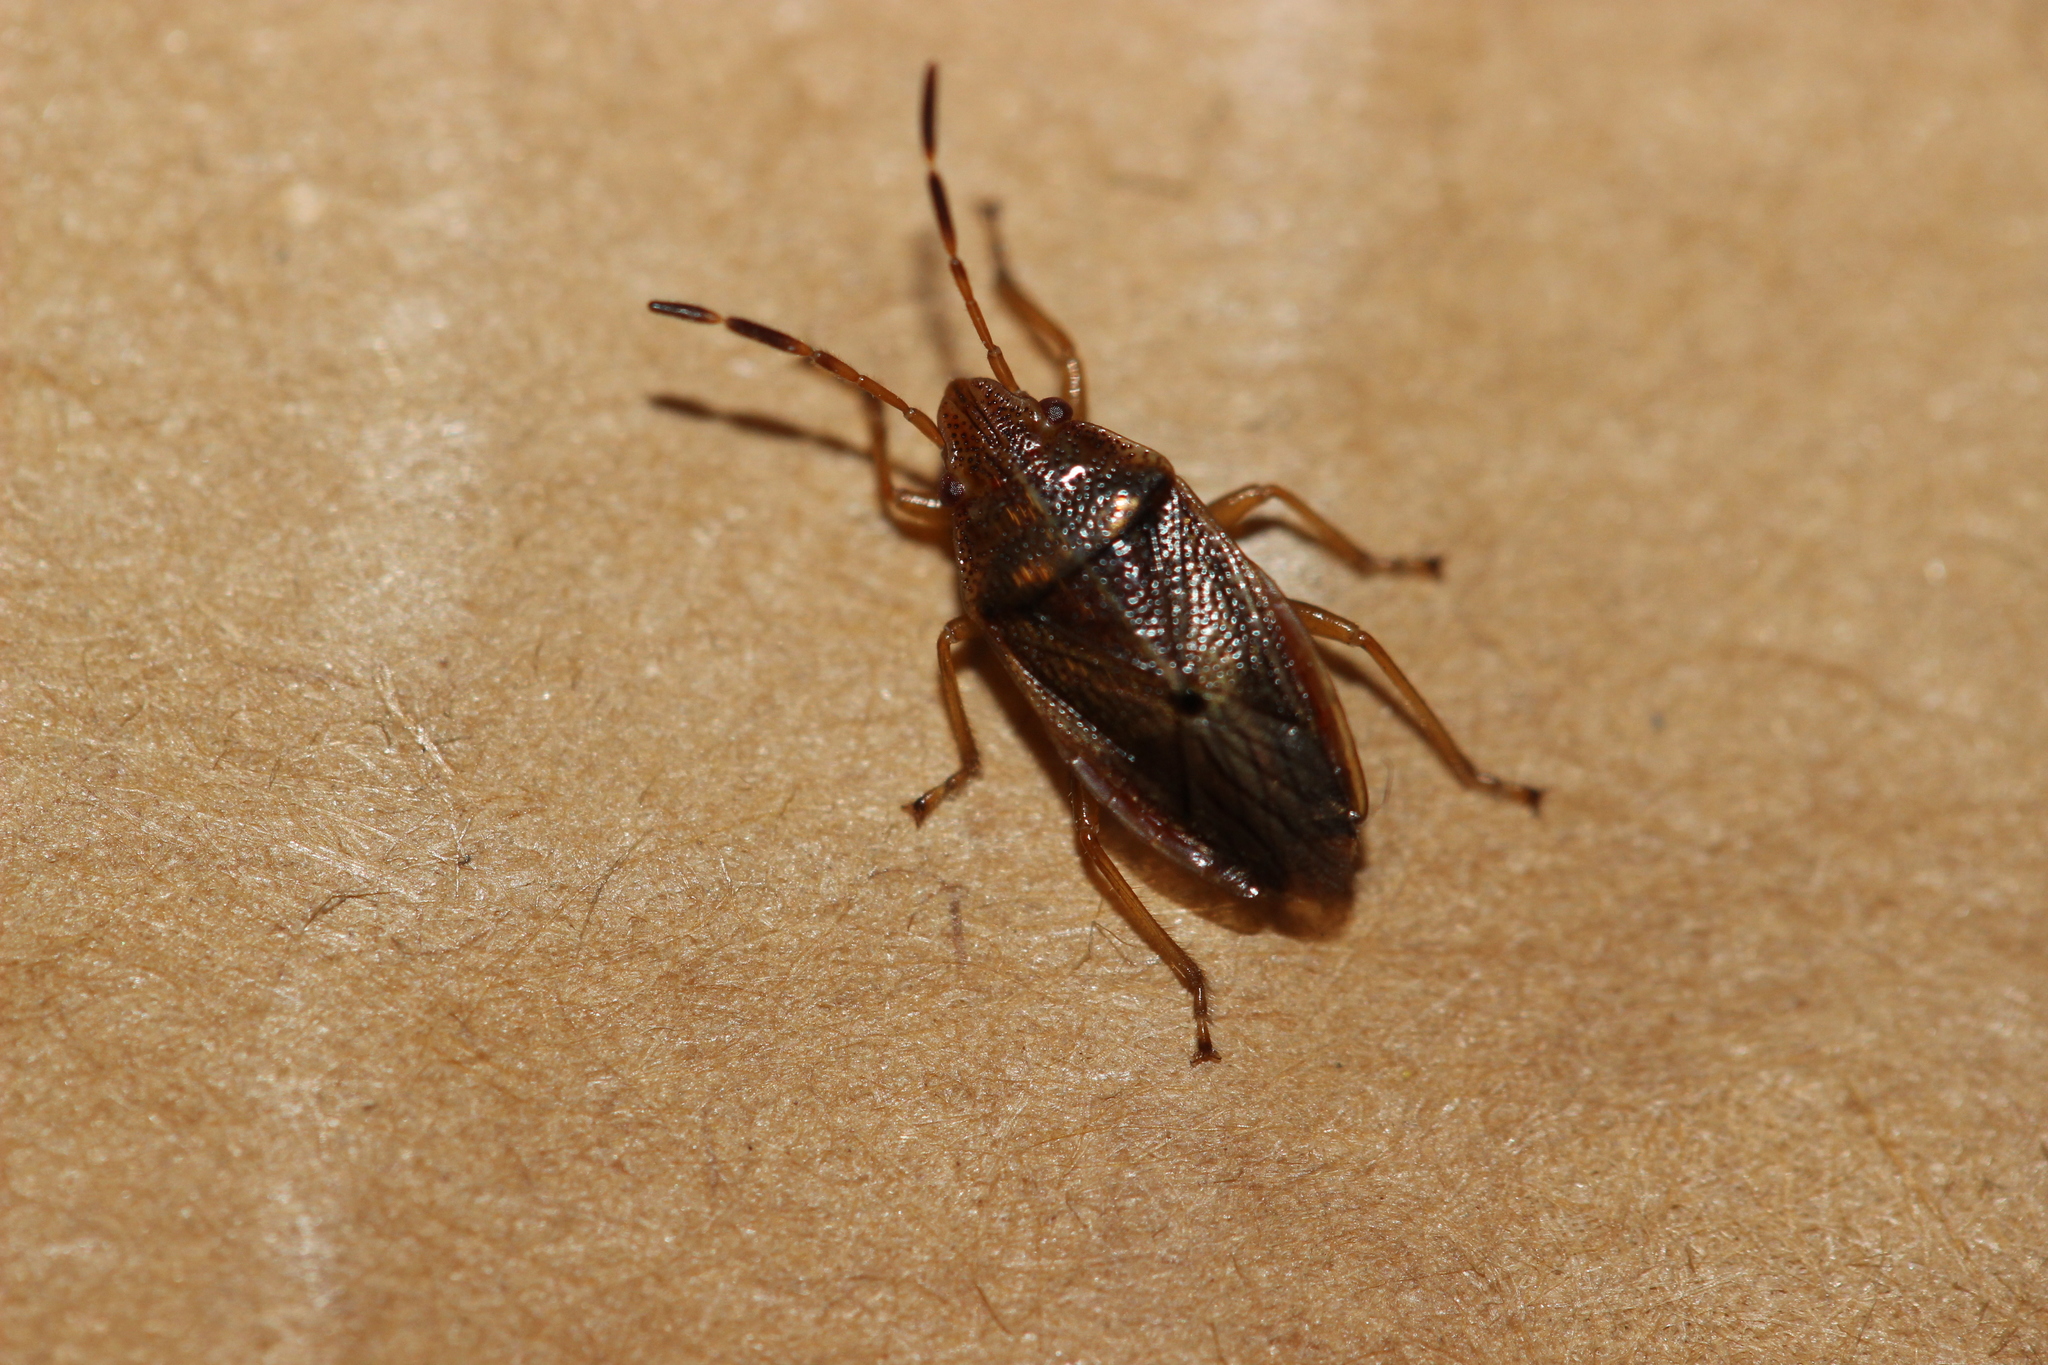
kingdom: Animalia
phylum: Arthropoda
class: Insecta
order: Hemiptera
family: Acanthosomatidae
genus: Rhopalimorpha
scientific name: Rhopalimorpha obscura
